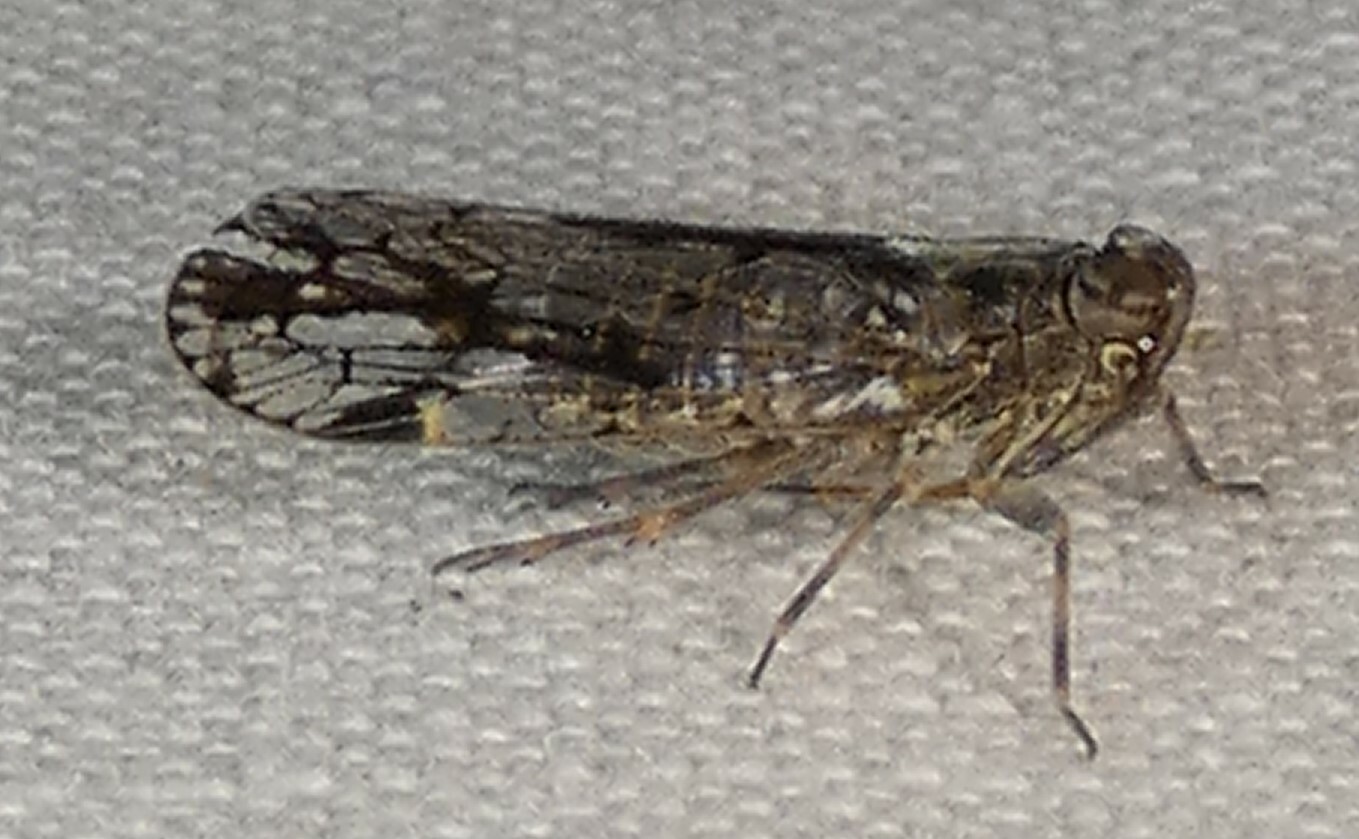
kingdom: Animalia
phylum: Arthropoda
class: Insecta
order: Hemiptera
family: Cixiidae
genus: Melanoliarus
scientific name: Melanoliarus placitus
